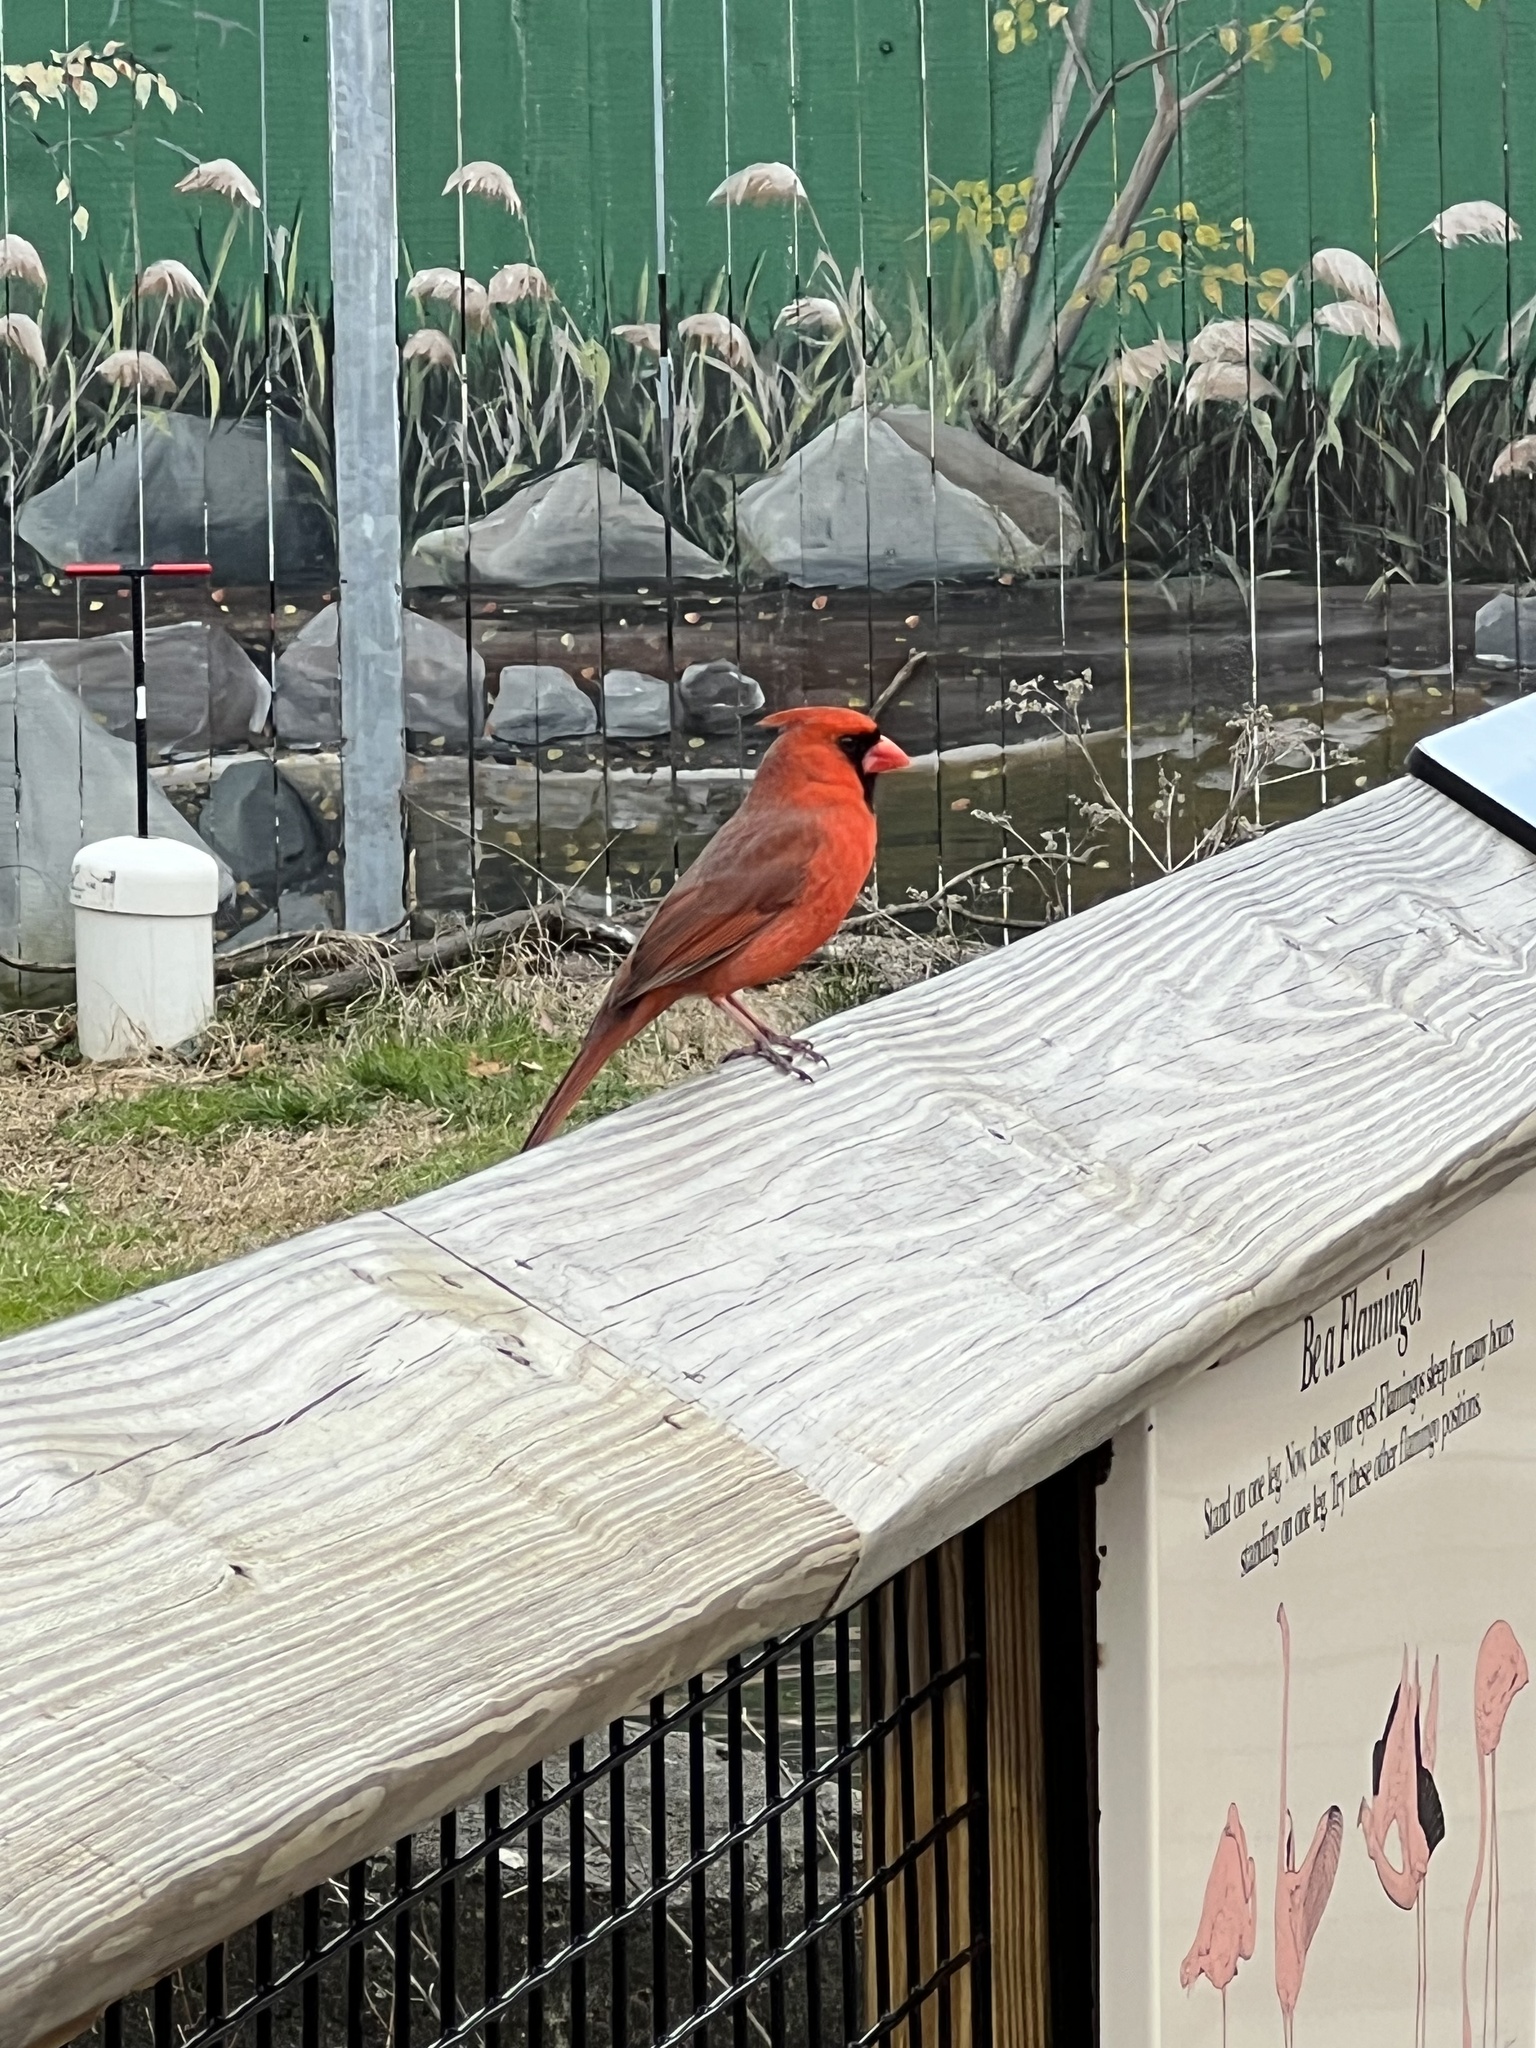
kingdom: Animalia
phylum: Chordata
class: Aves
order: Passeriformes
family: Cardinalidae
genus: Cardinalis
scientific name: Cardinalis cardinalis
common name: Northern cardinal
